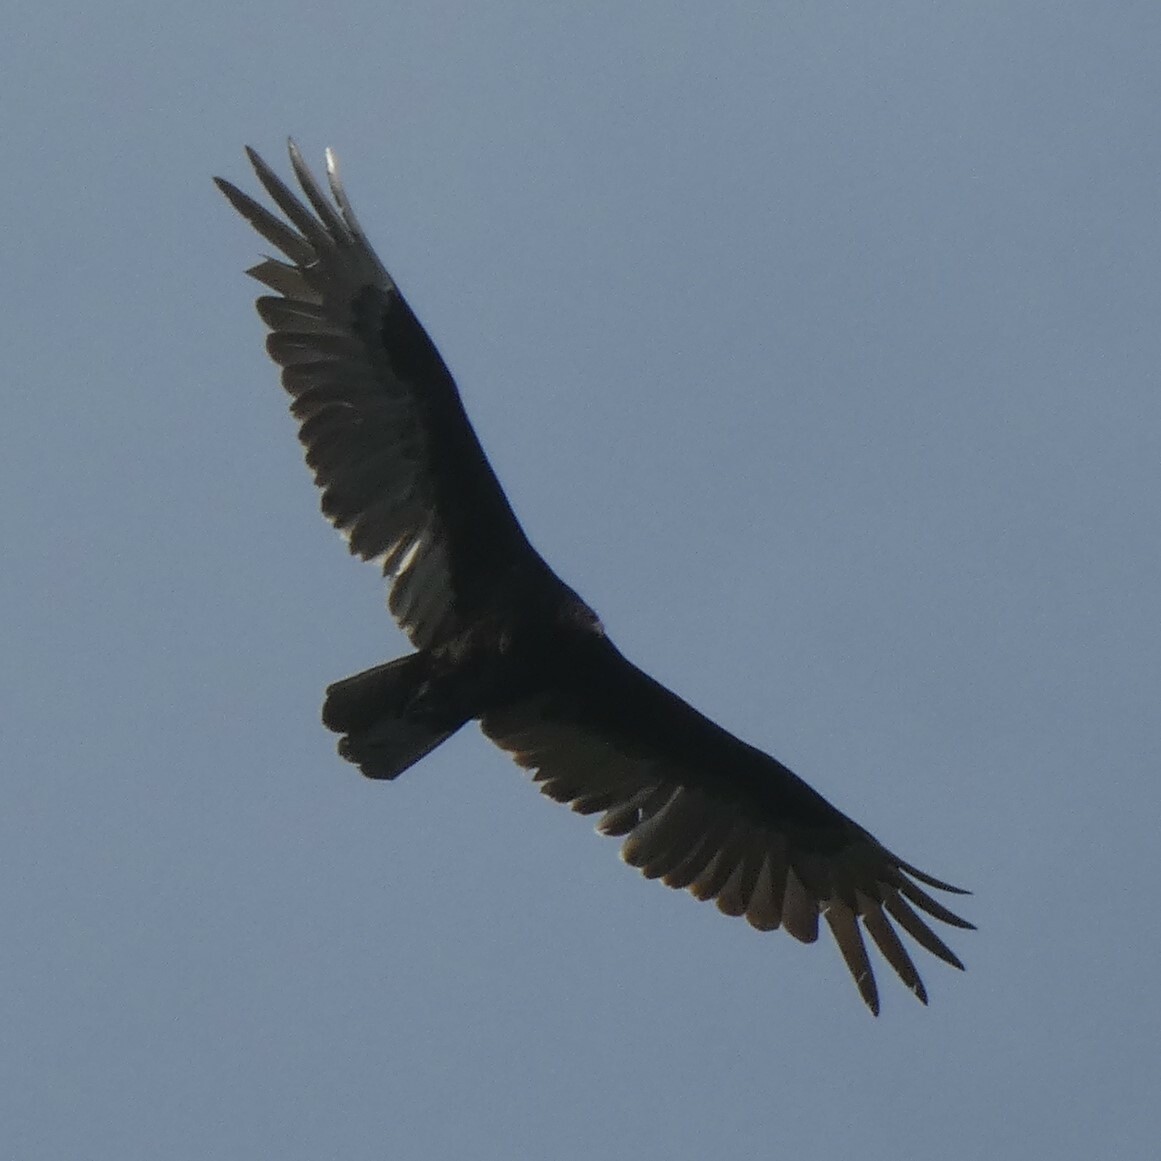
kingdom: Animalia
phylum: Chordata
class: Aves
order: Accipitriformes
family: Cathartidae
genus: Cathartes
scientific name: Cathartes aura
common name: Turkey vulture
